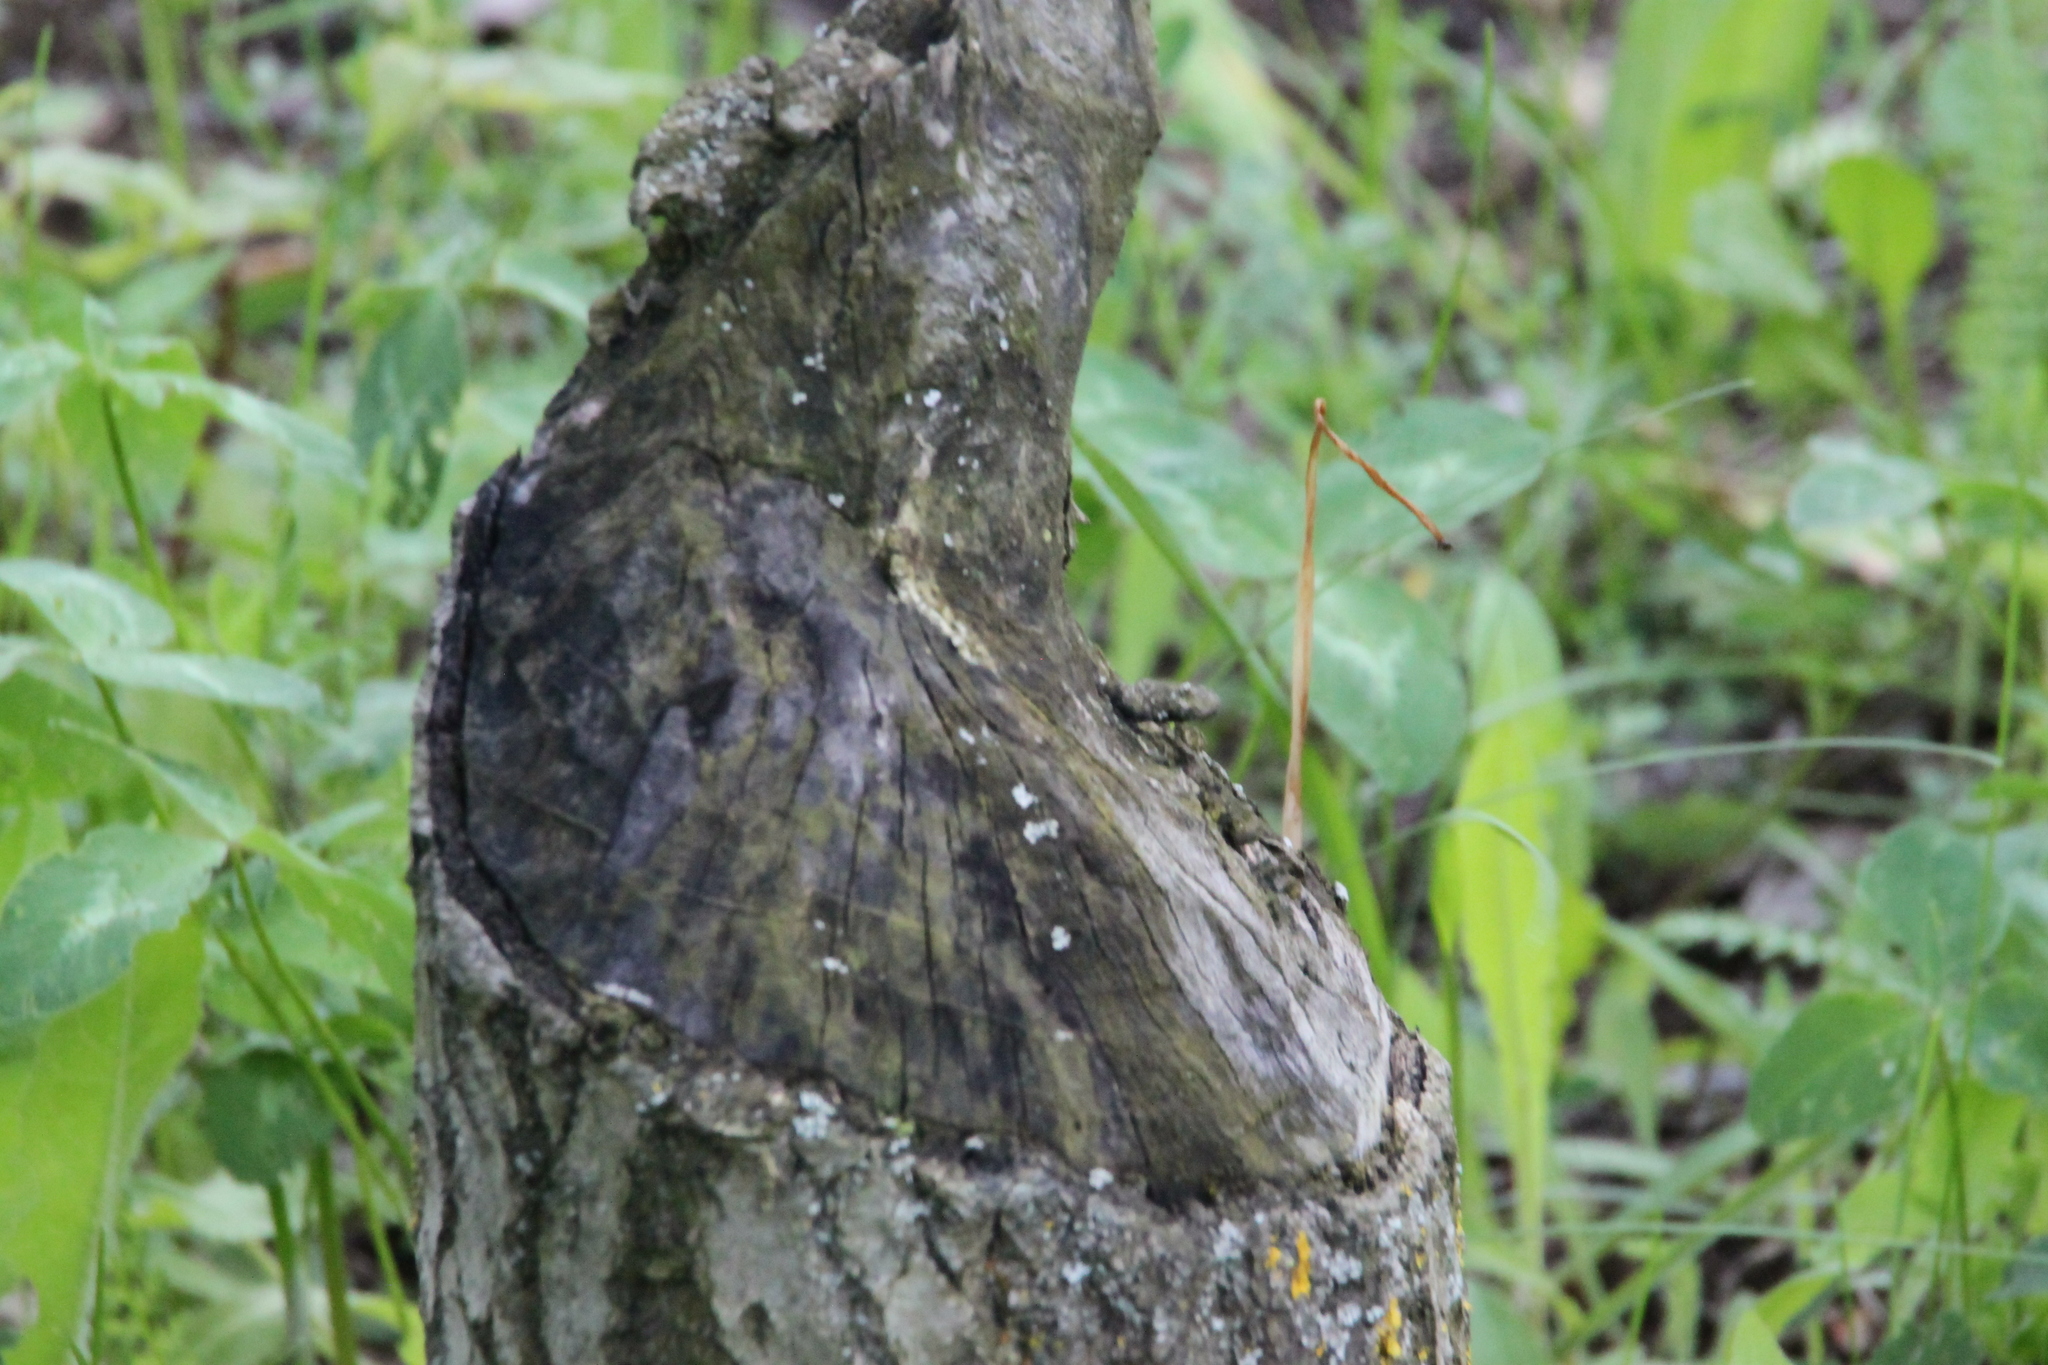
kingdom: Animalia
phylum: Chordata
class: Mammalia
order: Rodentia
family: Castoridae
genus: Castor
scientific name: Castor fiber
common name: Eurasian beaver
